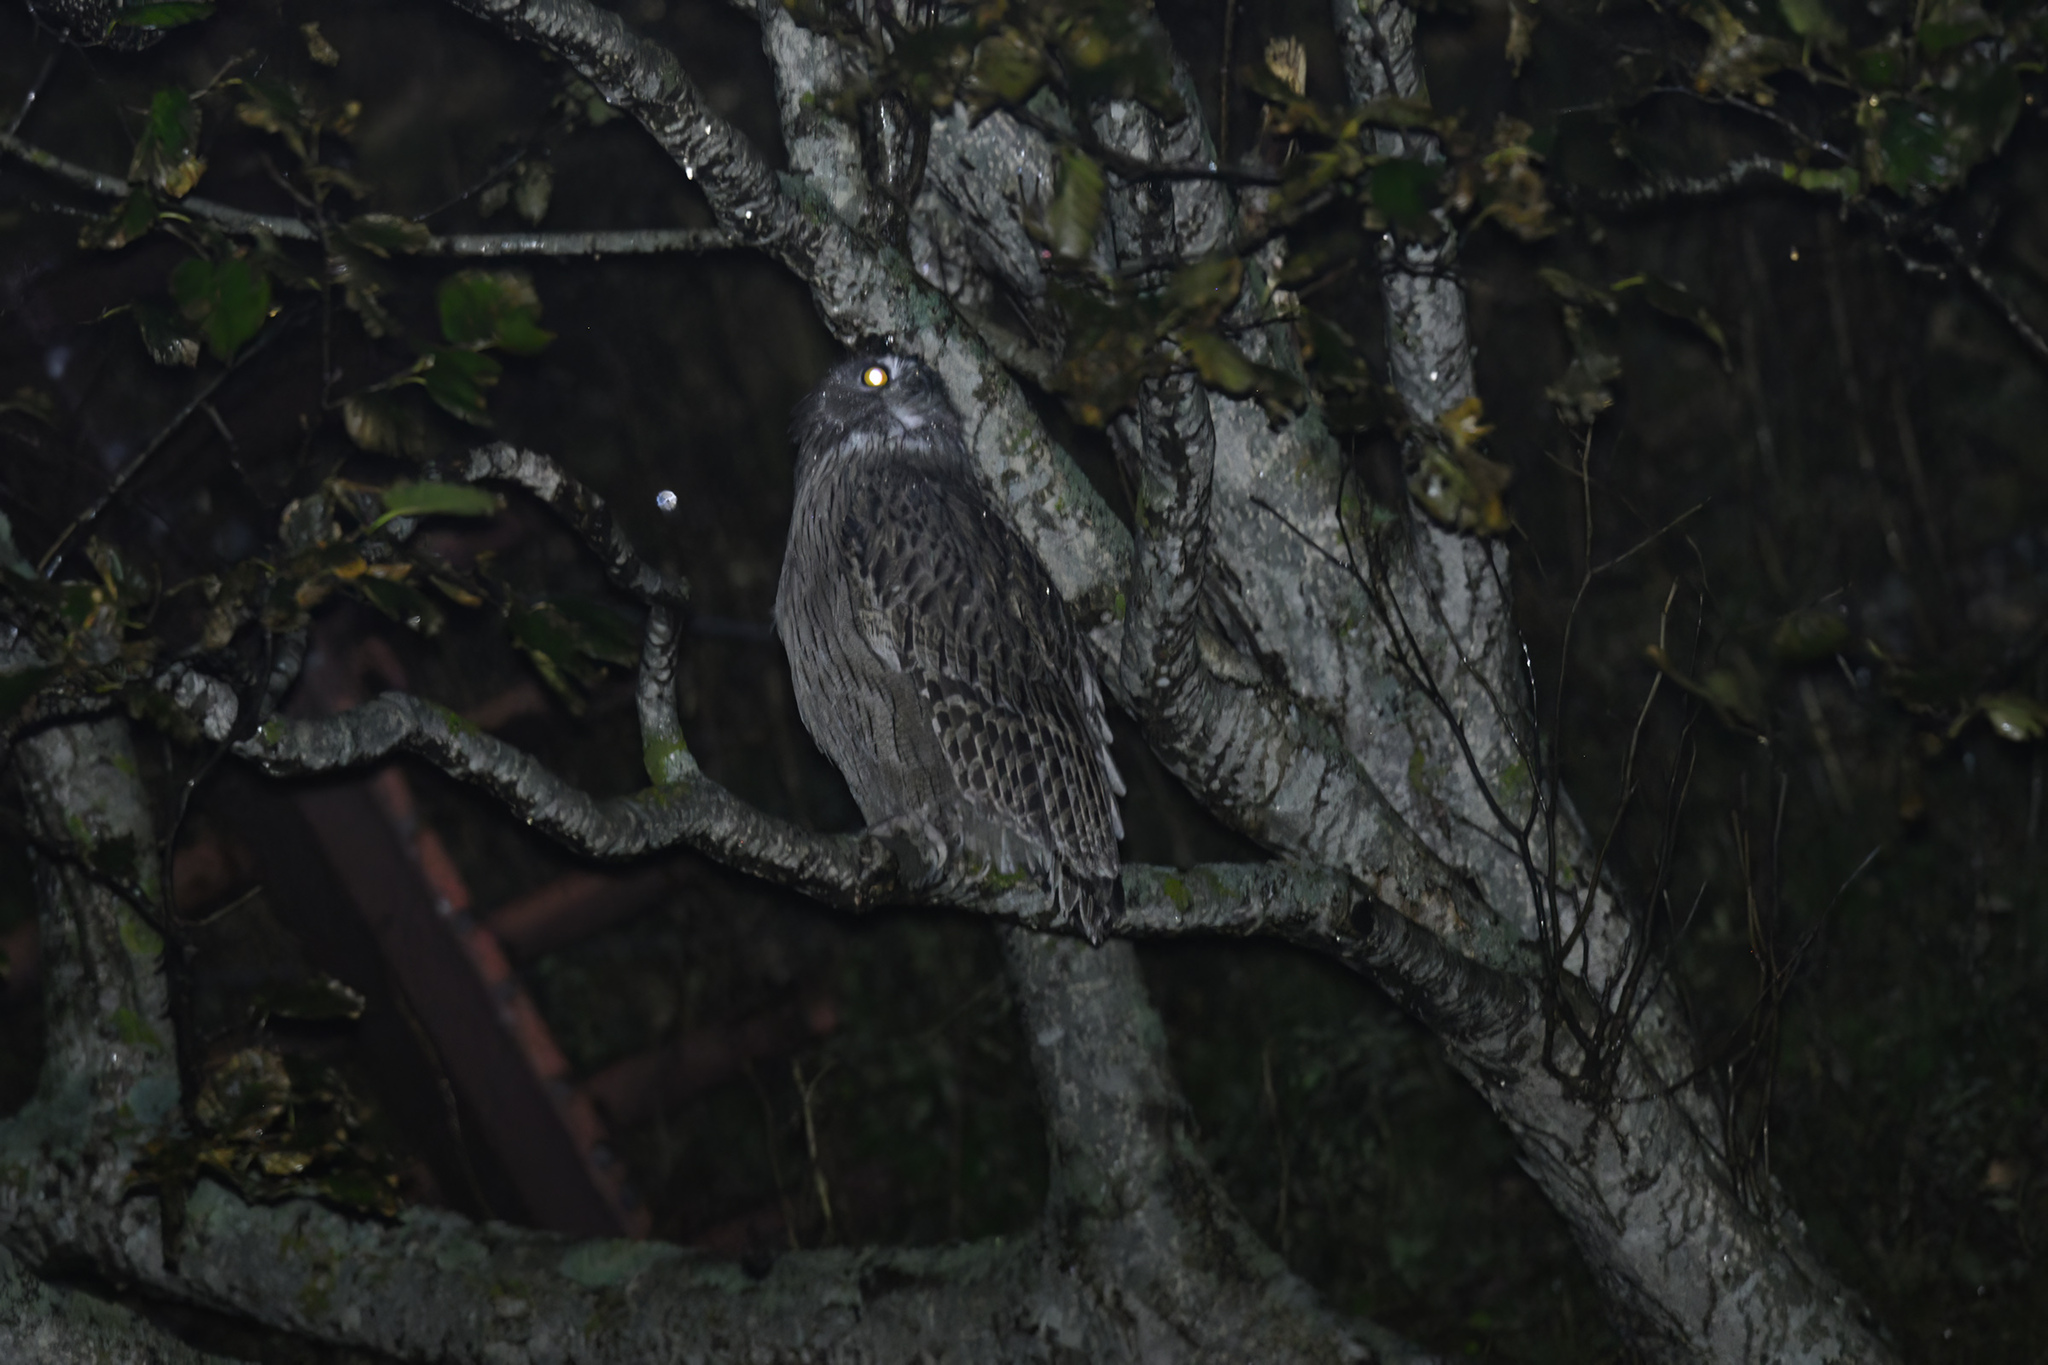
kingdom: Animalia
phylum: Chordata
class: Aves
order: Strigiformes
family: Strigidae
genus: Bubo
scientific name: Bubo blakistoni
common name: Blakiston's fish owl
